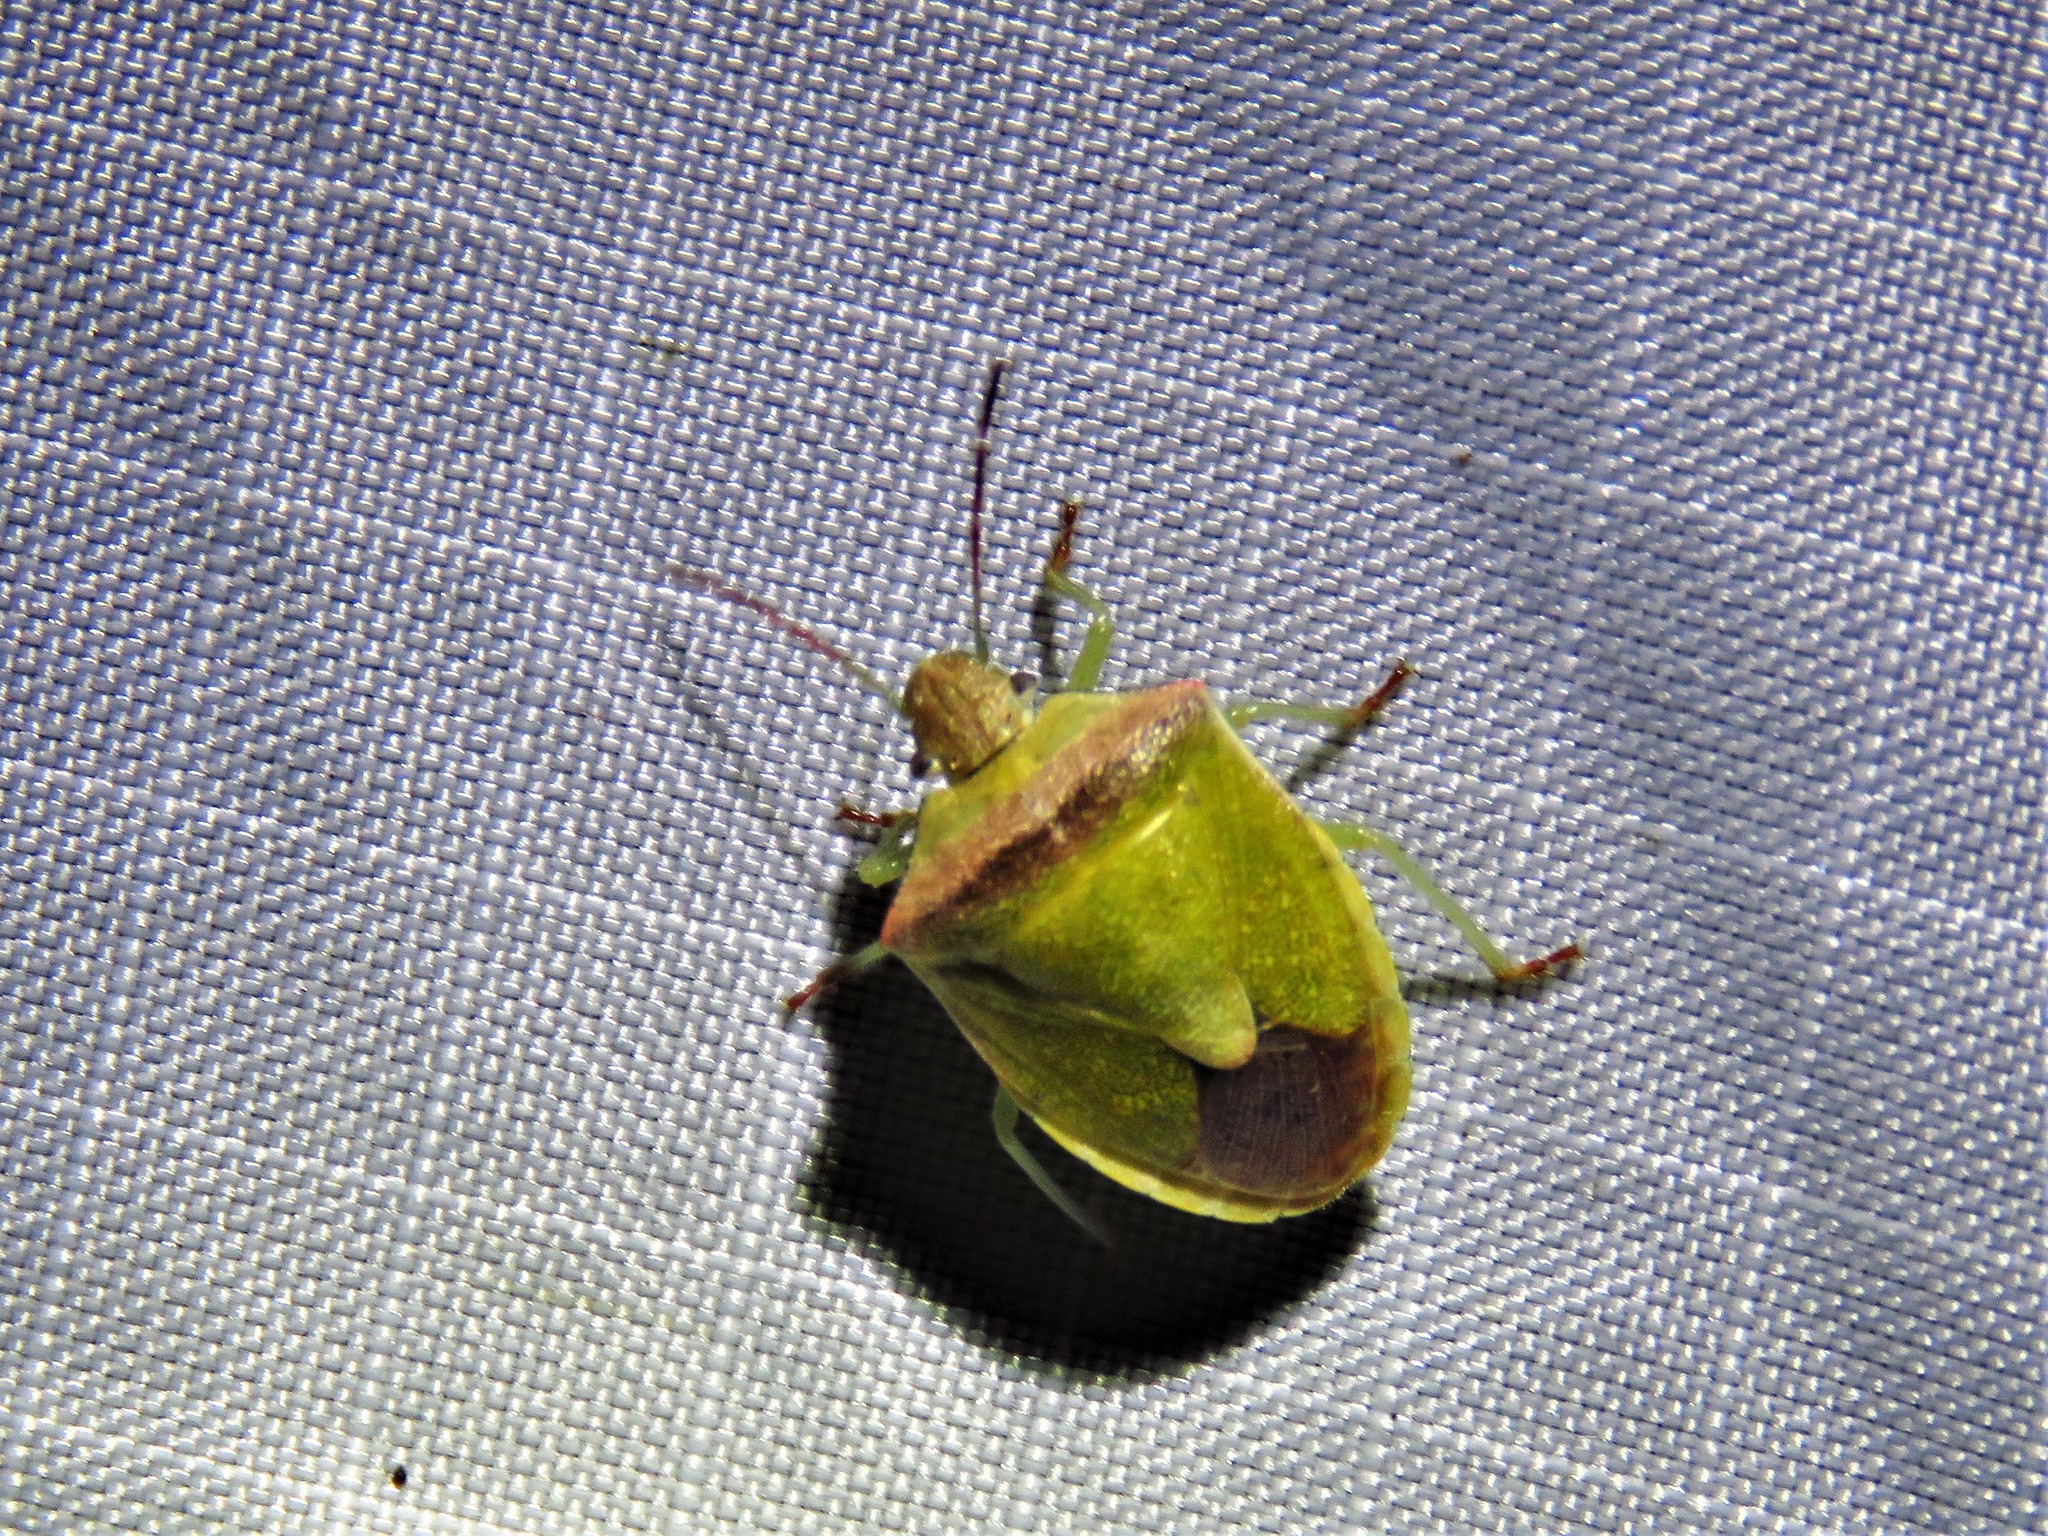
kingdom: Animalia
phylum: Arthropoda
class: Insecta
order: Hemiptera
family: Pentatomidae
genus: Thyanta
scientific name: Thyanta calceata
